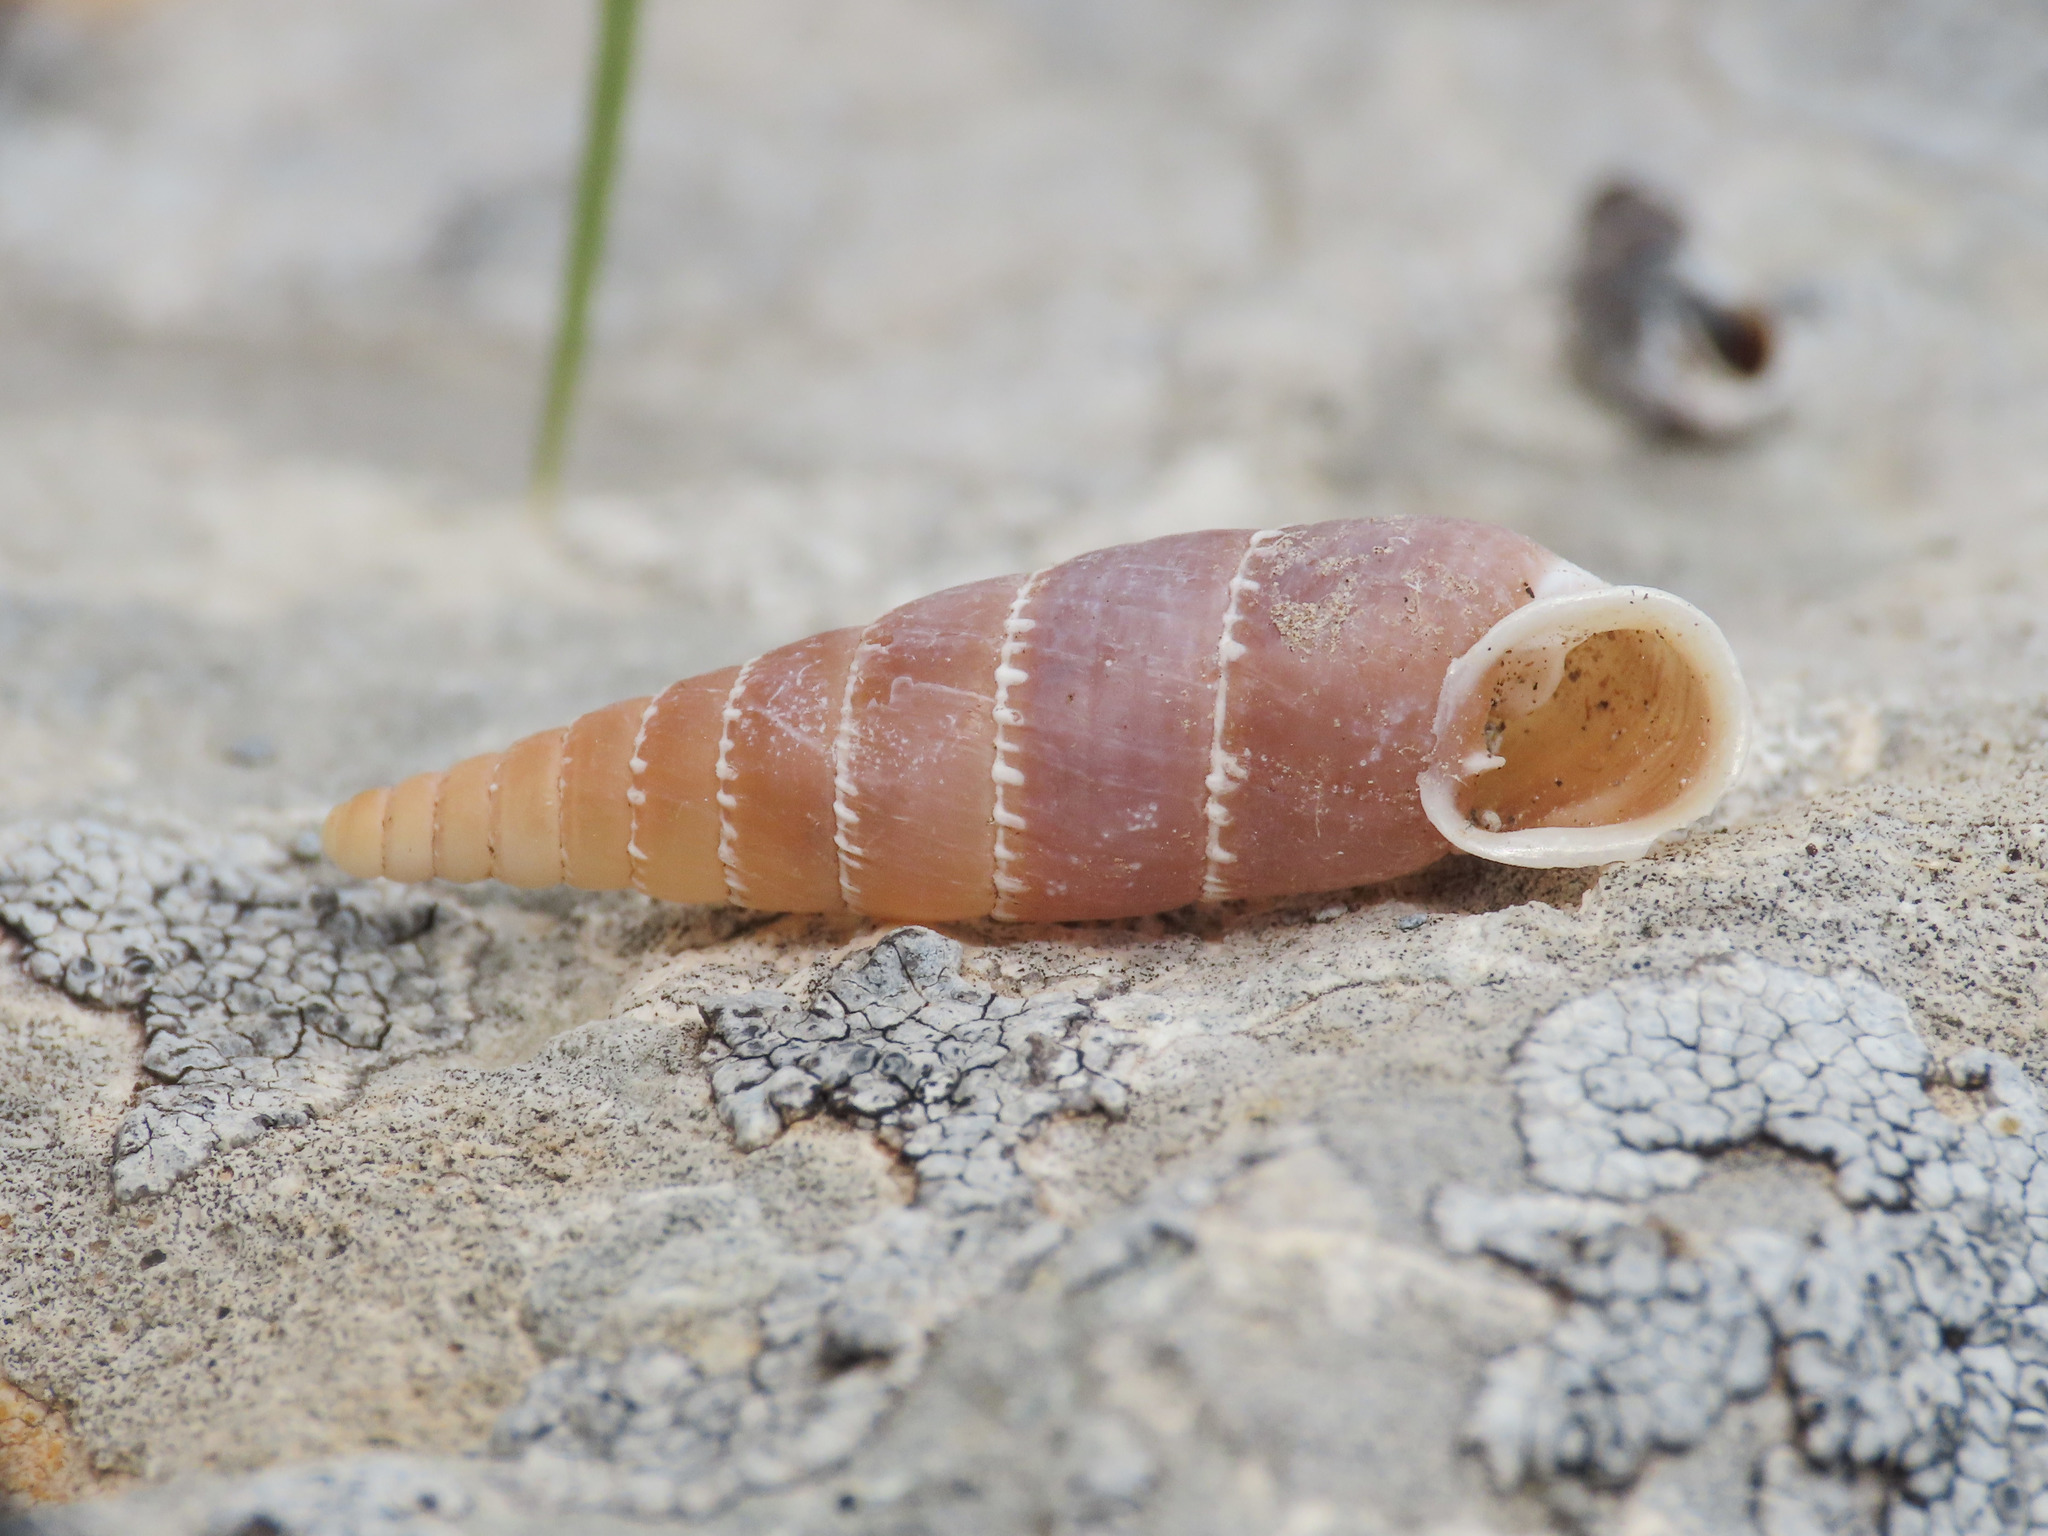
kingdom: Animalia
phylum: Mollusca
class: Gastropoda
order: Stylommatophora
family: Clausiliidae
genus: Leucostigma
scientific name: Leucostigma candidescens
